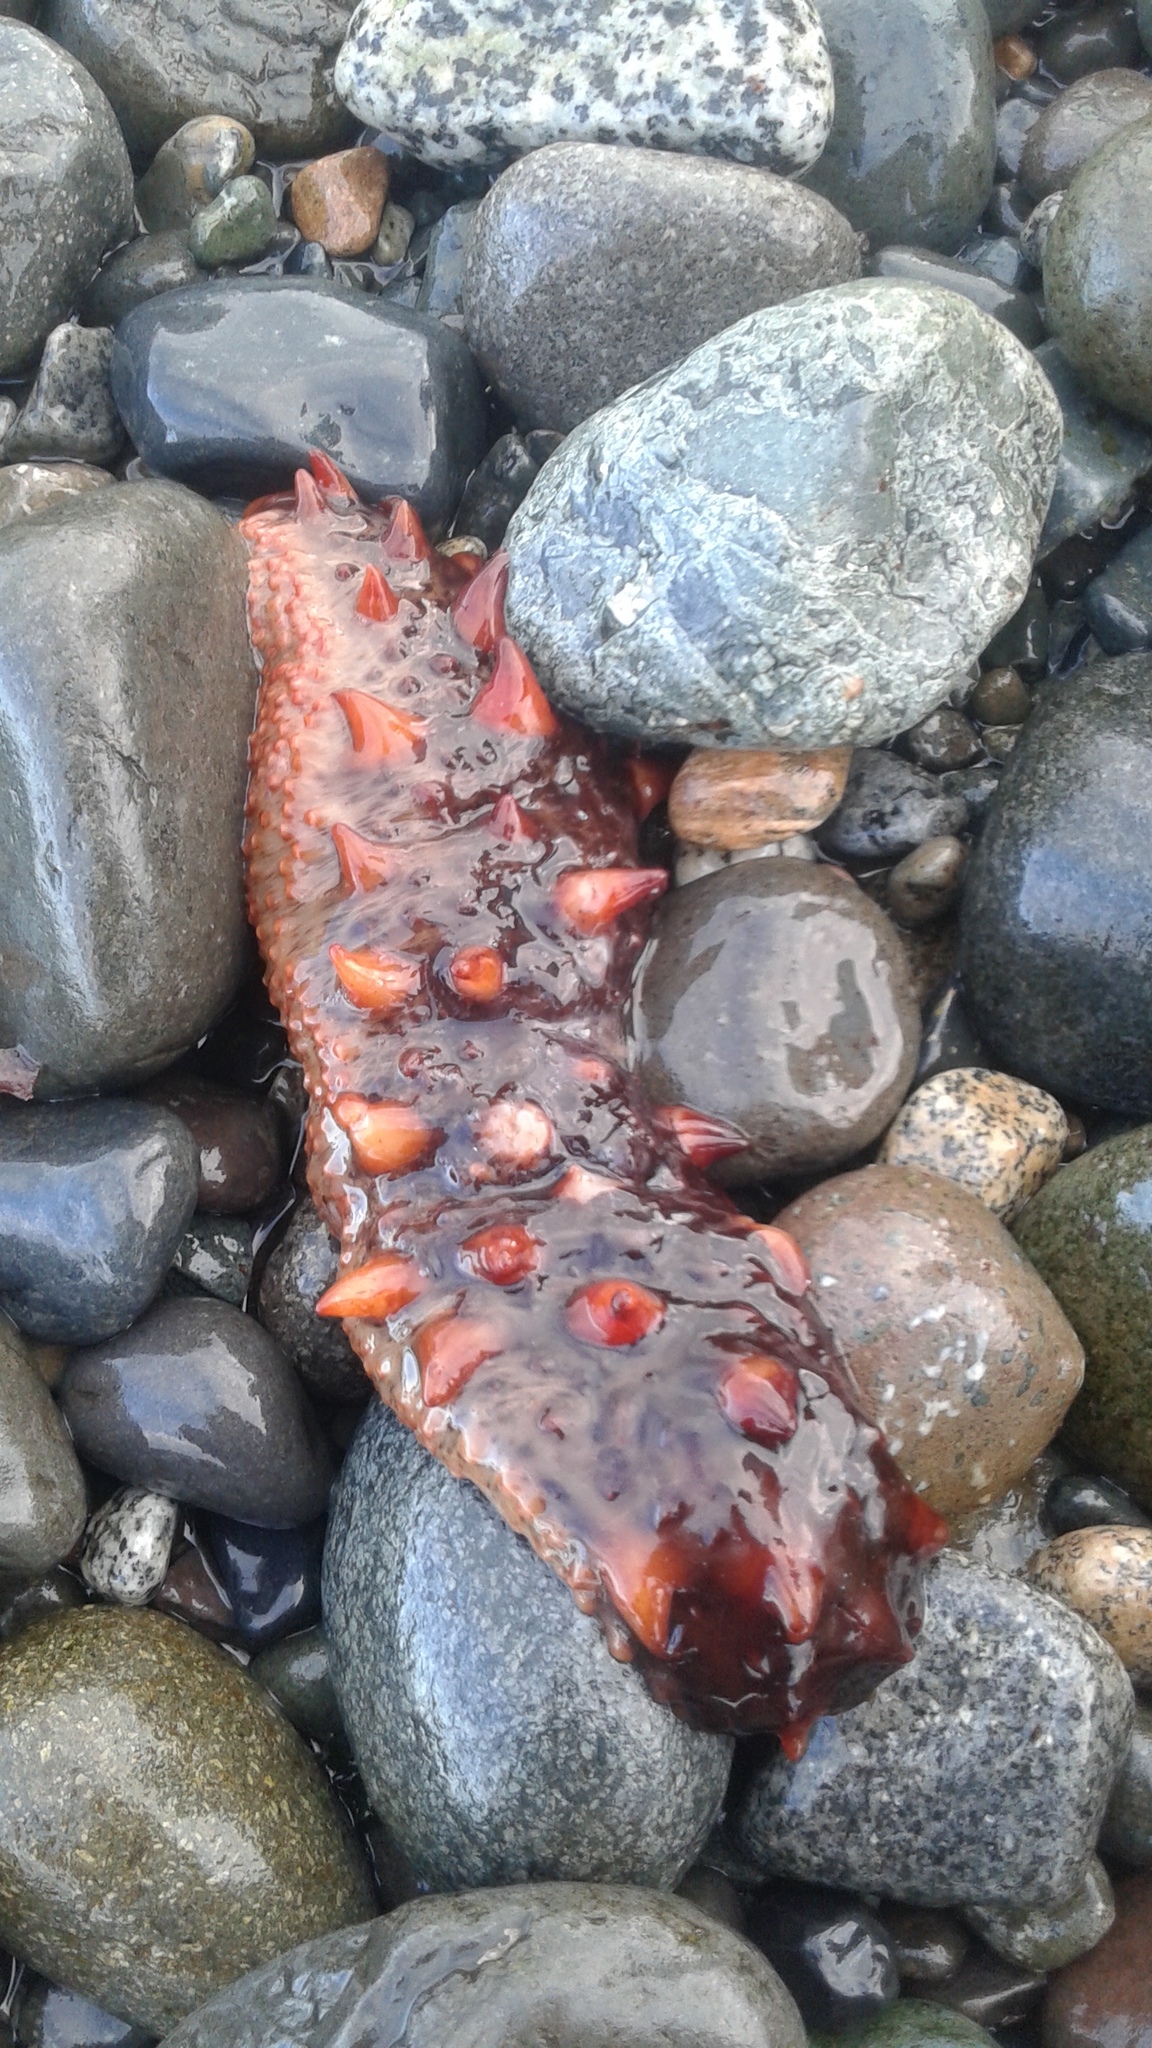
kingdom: Animalia
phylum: Echinodermata
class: Holothuroidea
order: Synallactida
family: Stichopodidae
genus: Apostichopus
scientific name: Apostichopus californicus
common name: California sea cucumber
